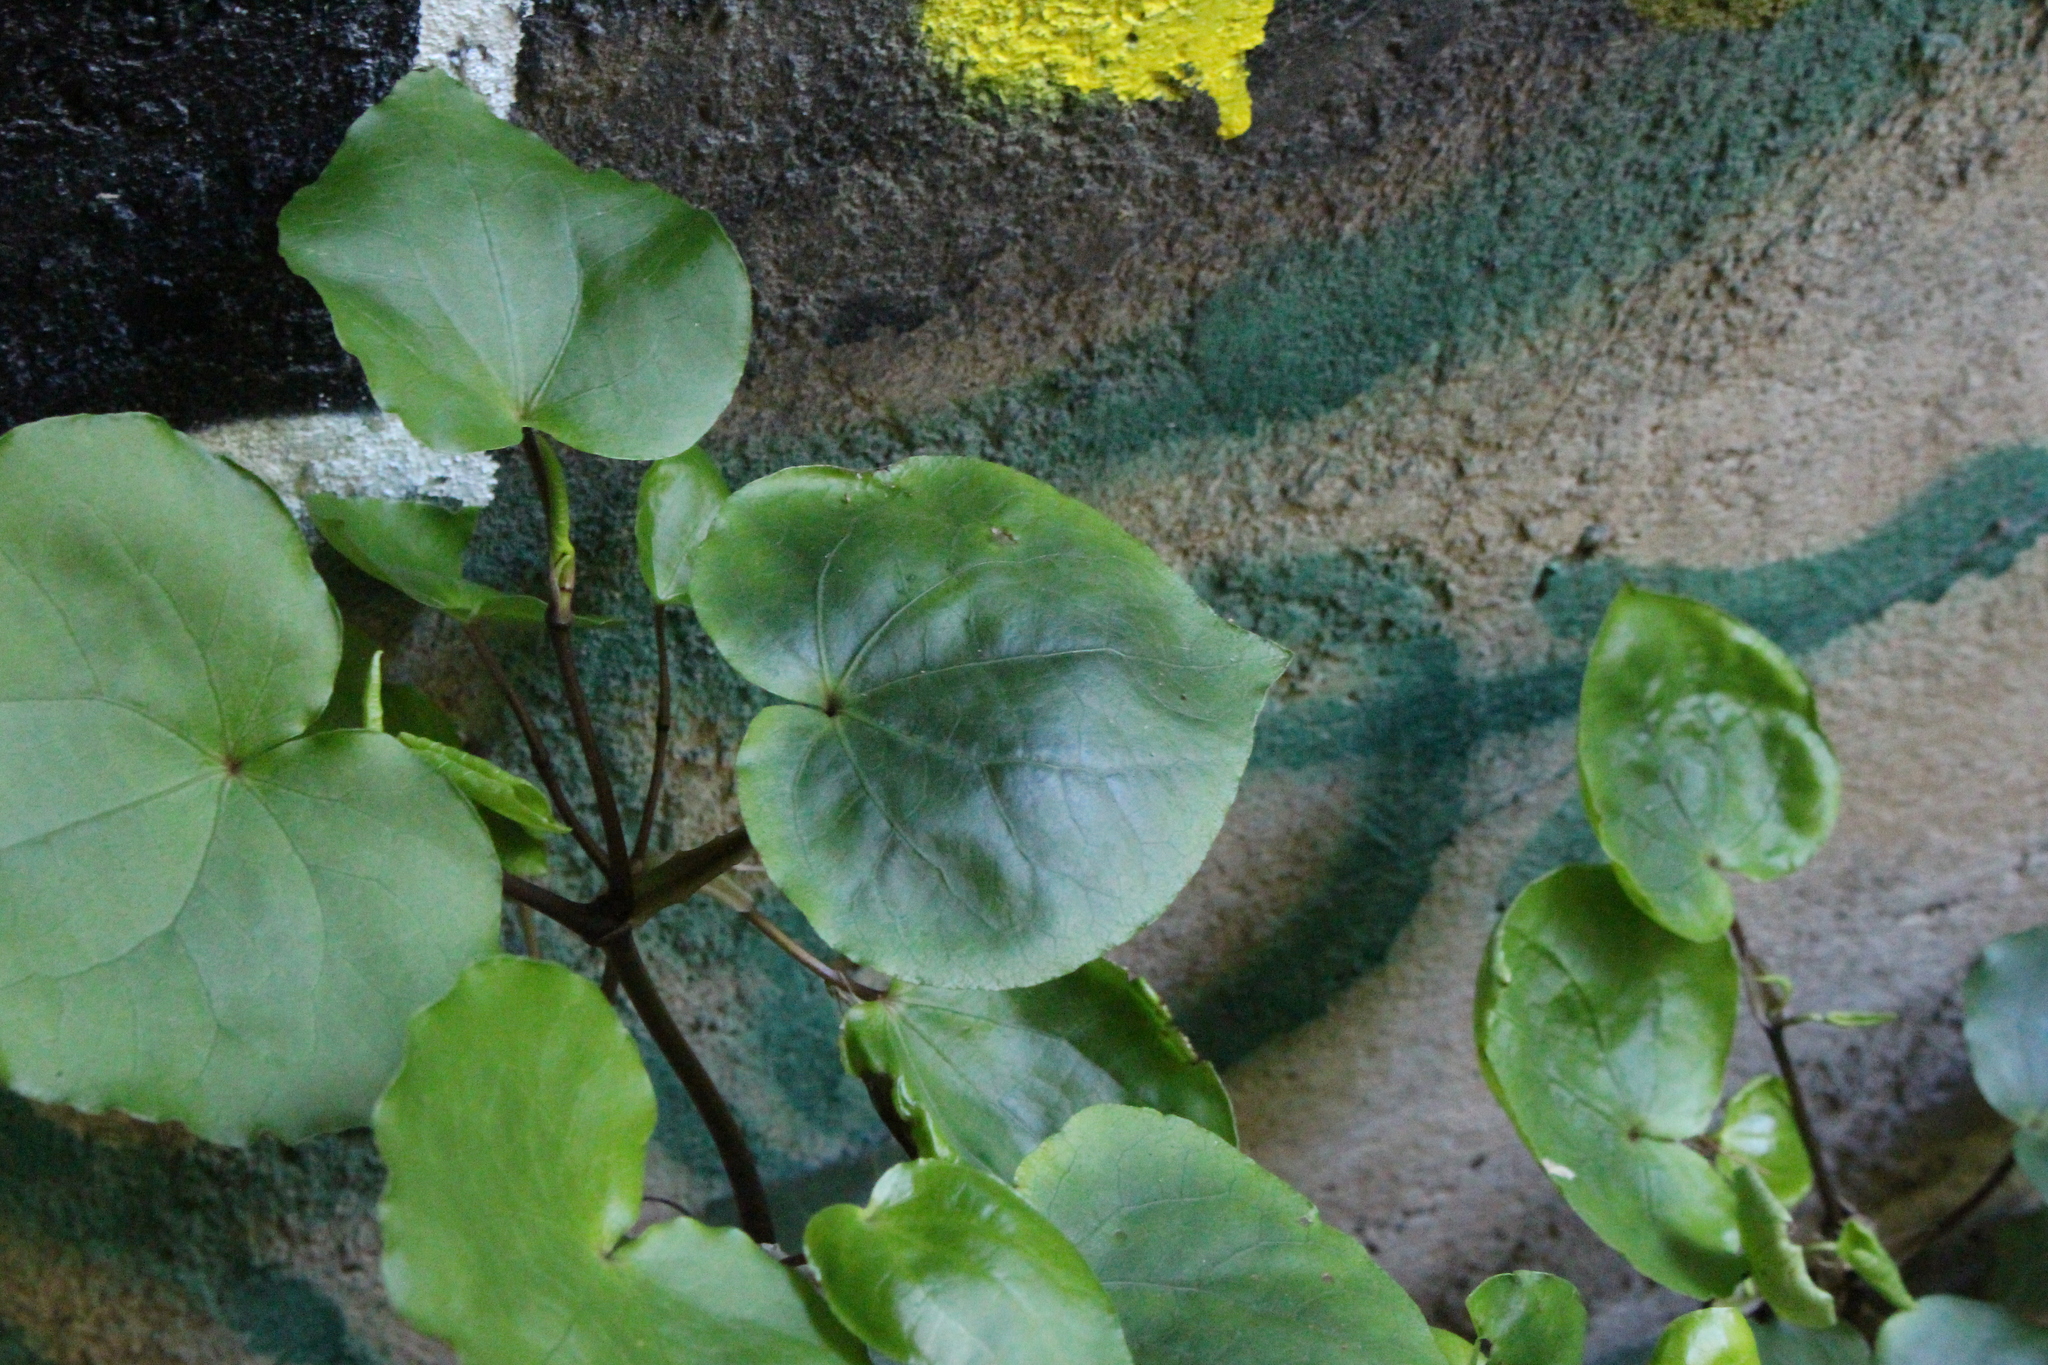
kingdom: Plantae
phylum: Tracheophyta
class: Magnoliopsida
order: Piperales
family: Piperaceae
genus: Macropiper
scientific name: Macropiper excelsum
